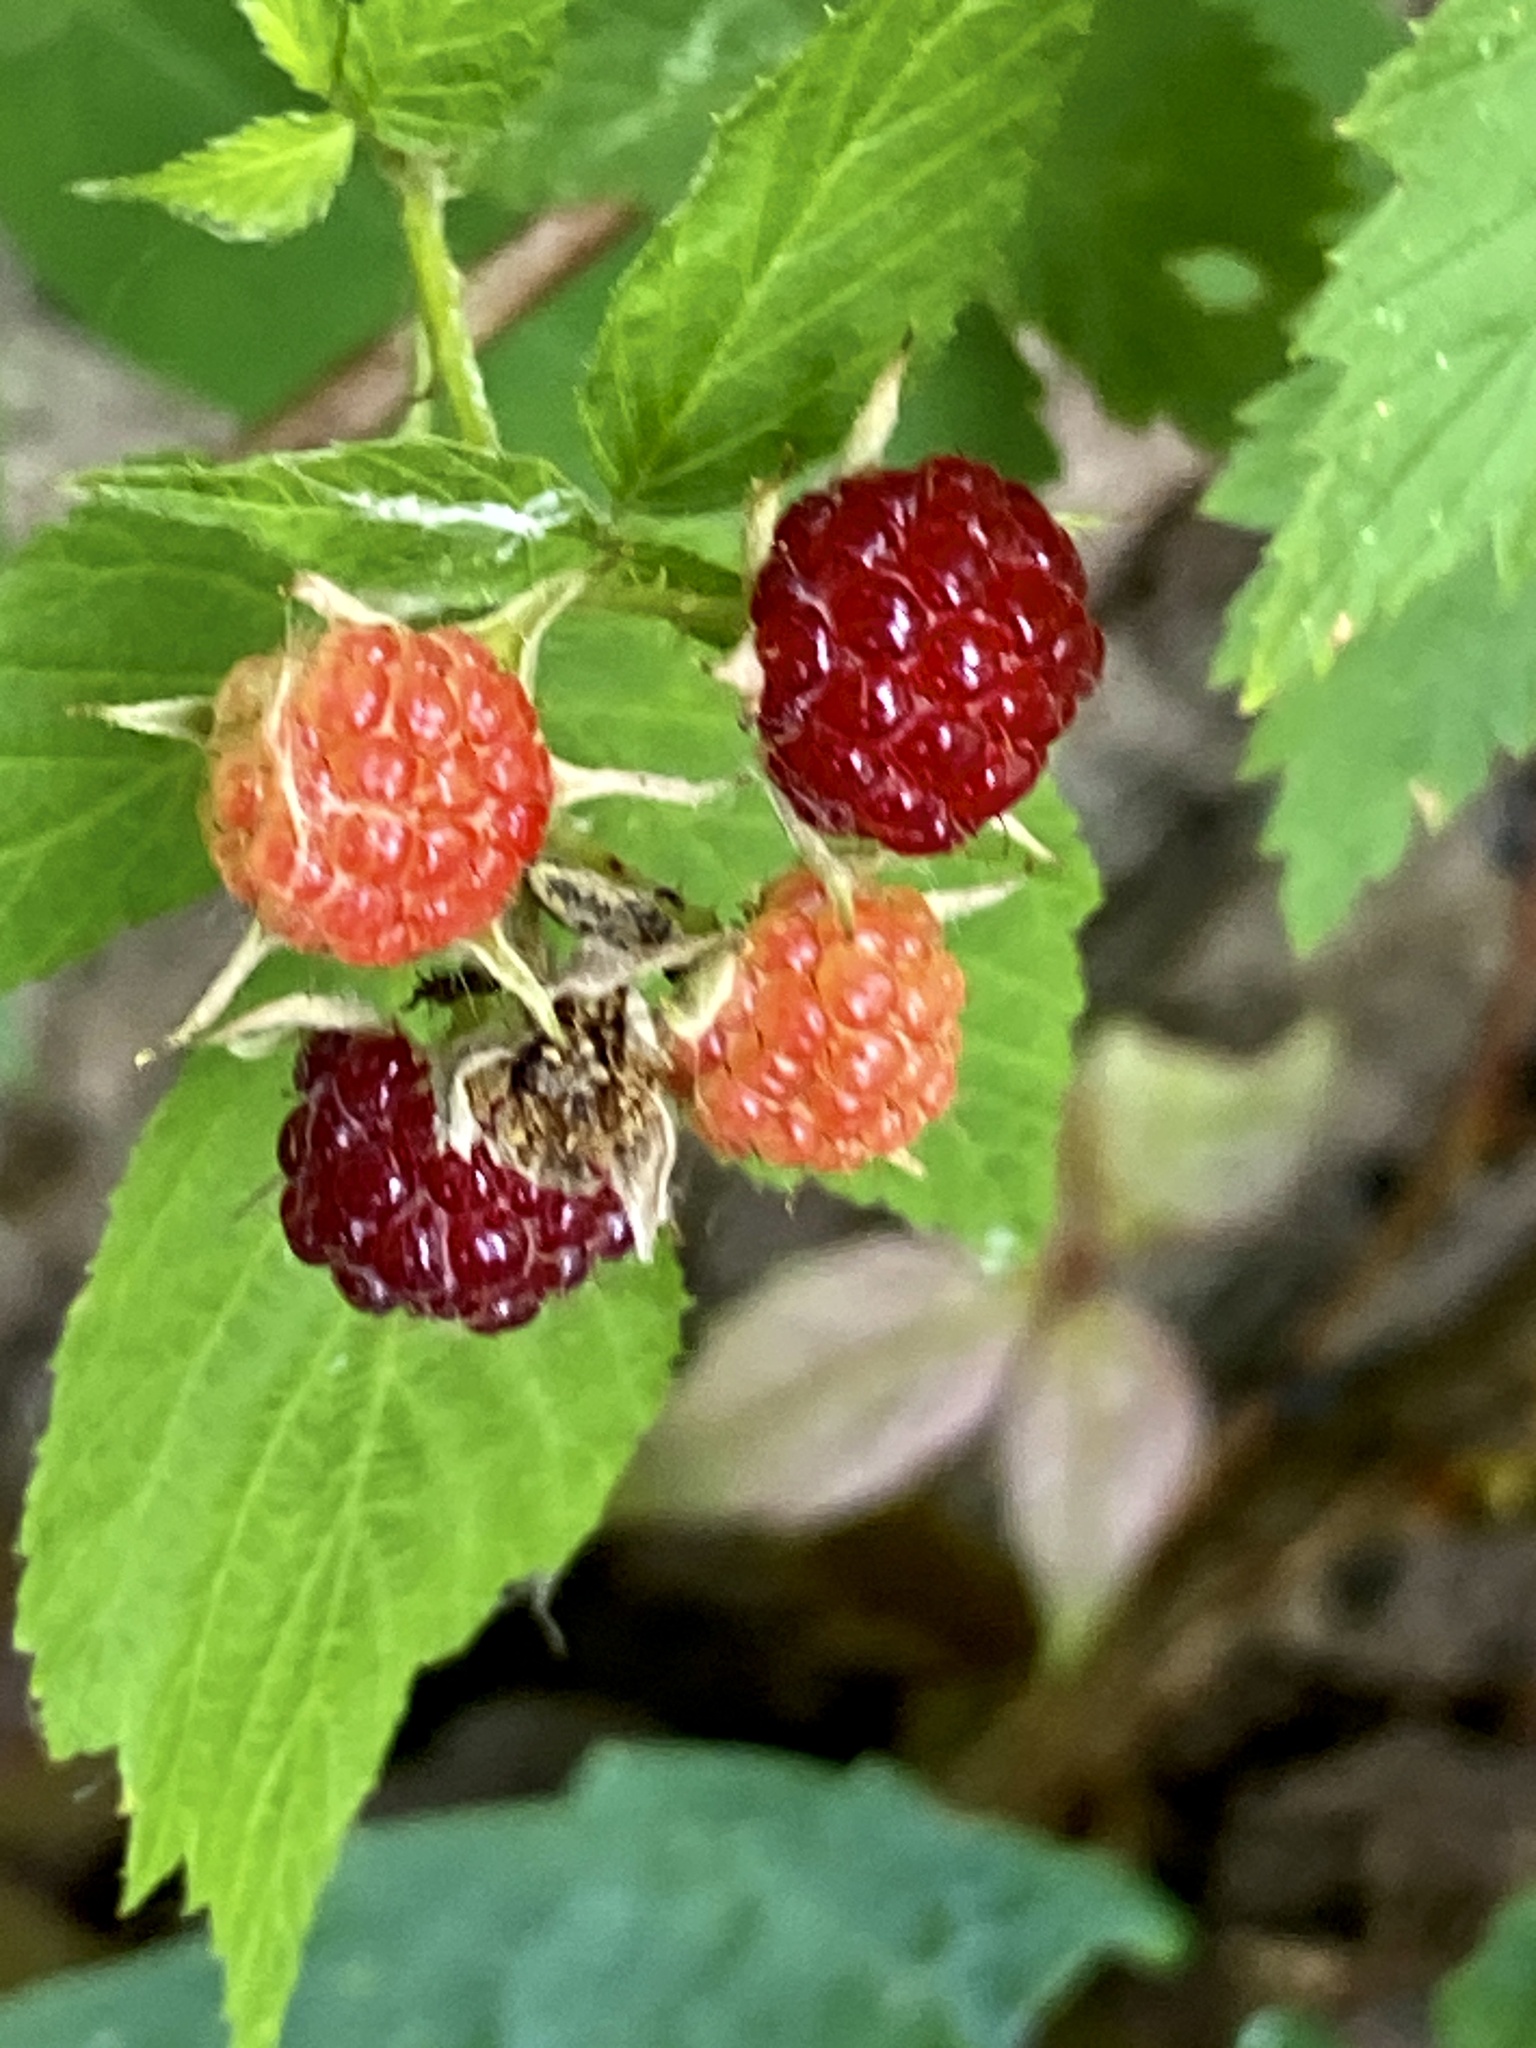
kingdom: Plantae
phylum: Tracheophyta
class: Magnoliopsida
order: Rosales
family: Rosaceae
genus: Rubus
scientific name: Rubus occidentalis
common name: Black raspberry
